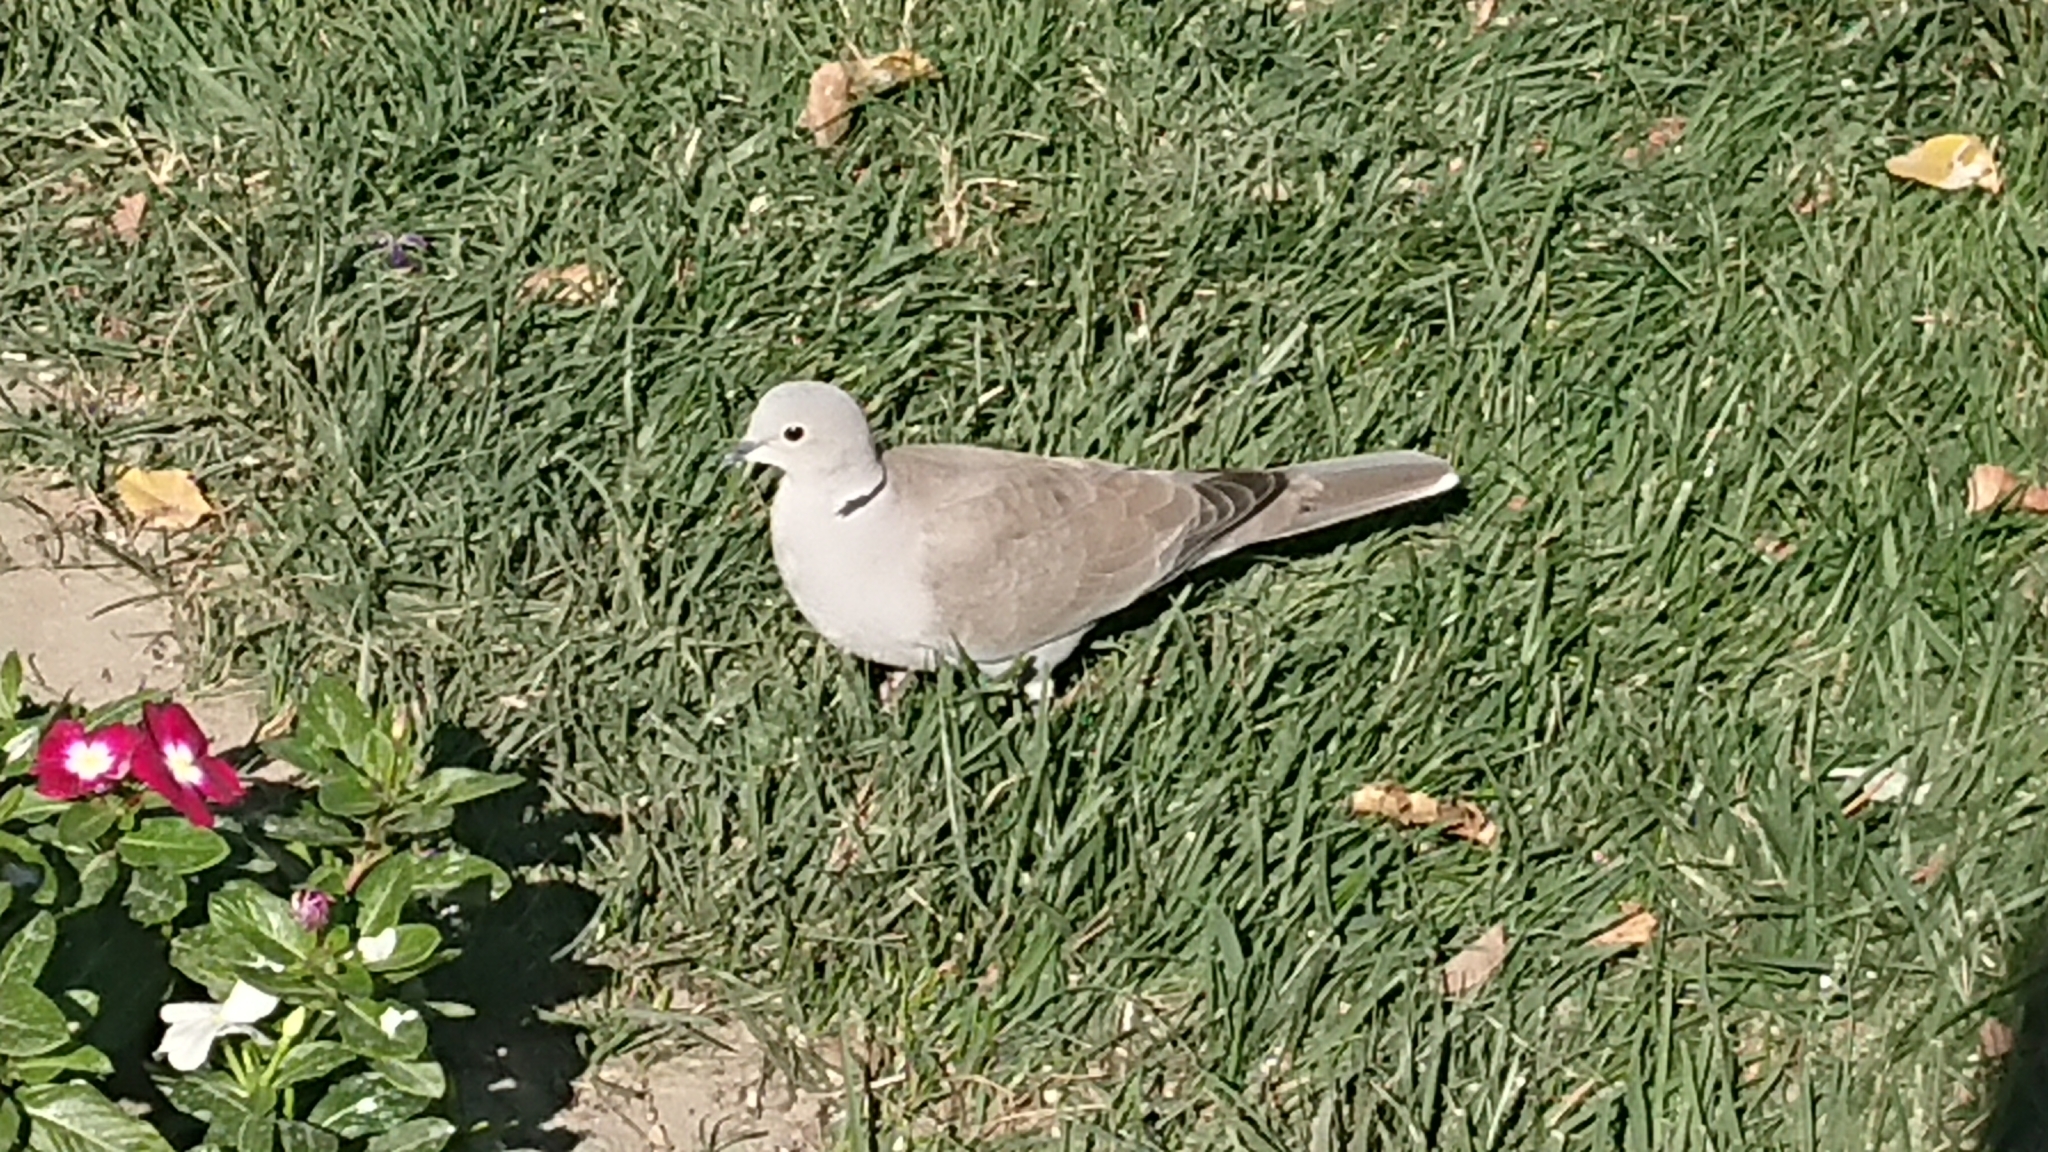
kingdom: Animalia
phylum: Chordata
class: Aves
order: Columbiformes
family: Columbidae
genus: Streptopelia
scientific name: Streptopelia decaocto
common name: Eurasian collared dove
